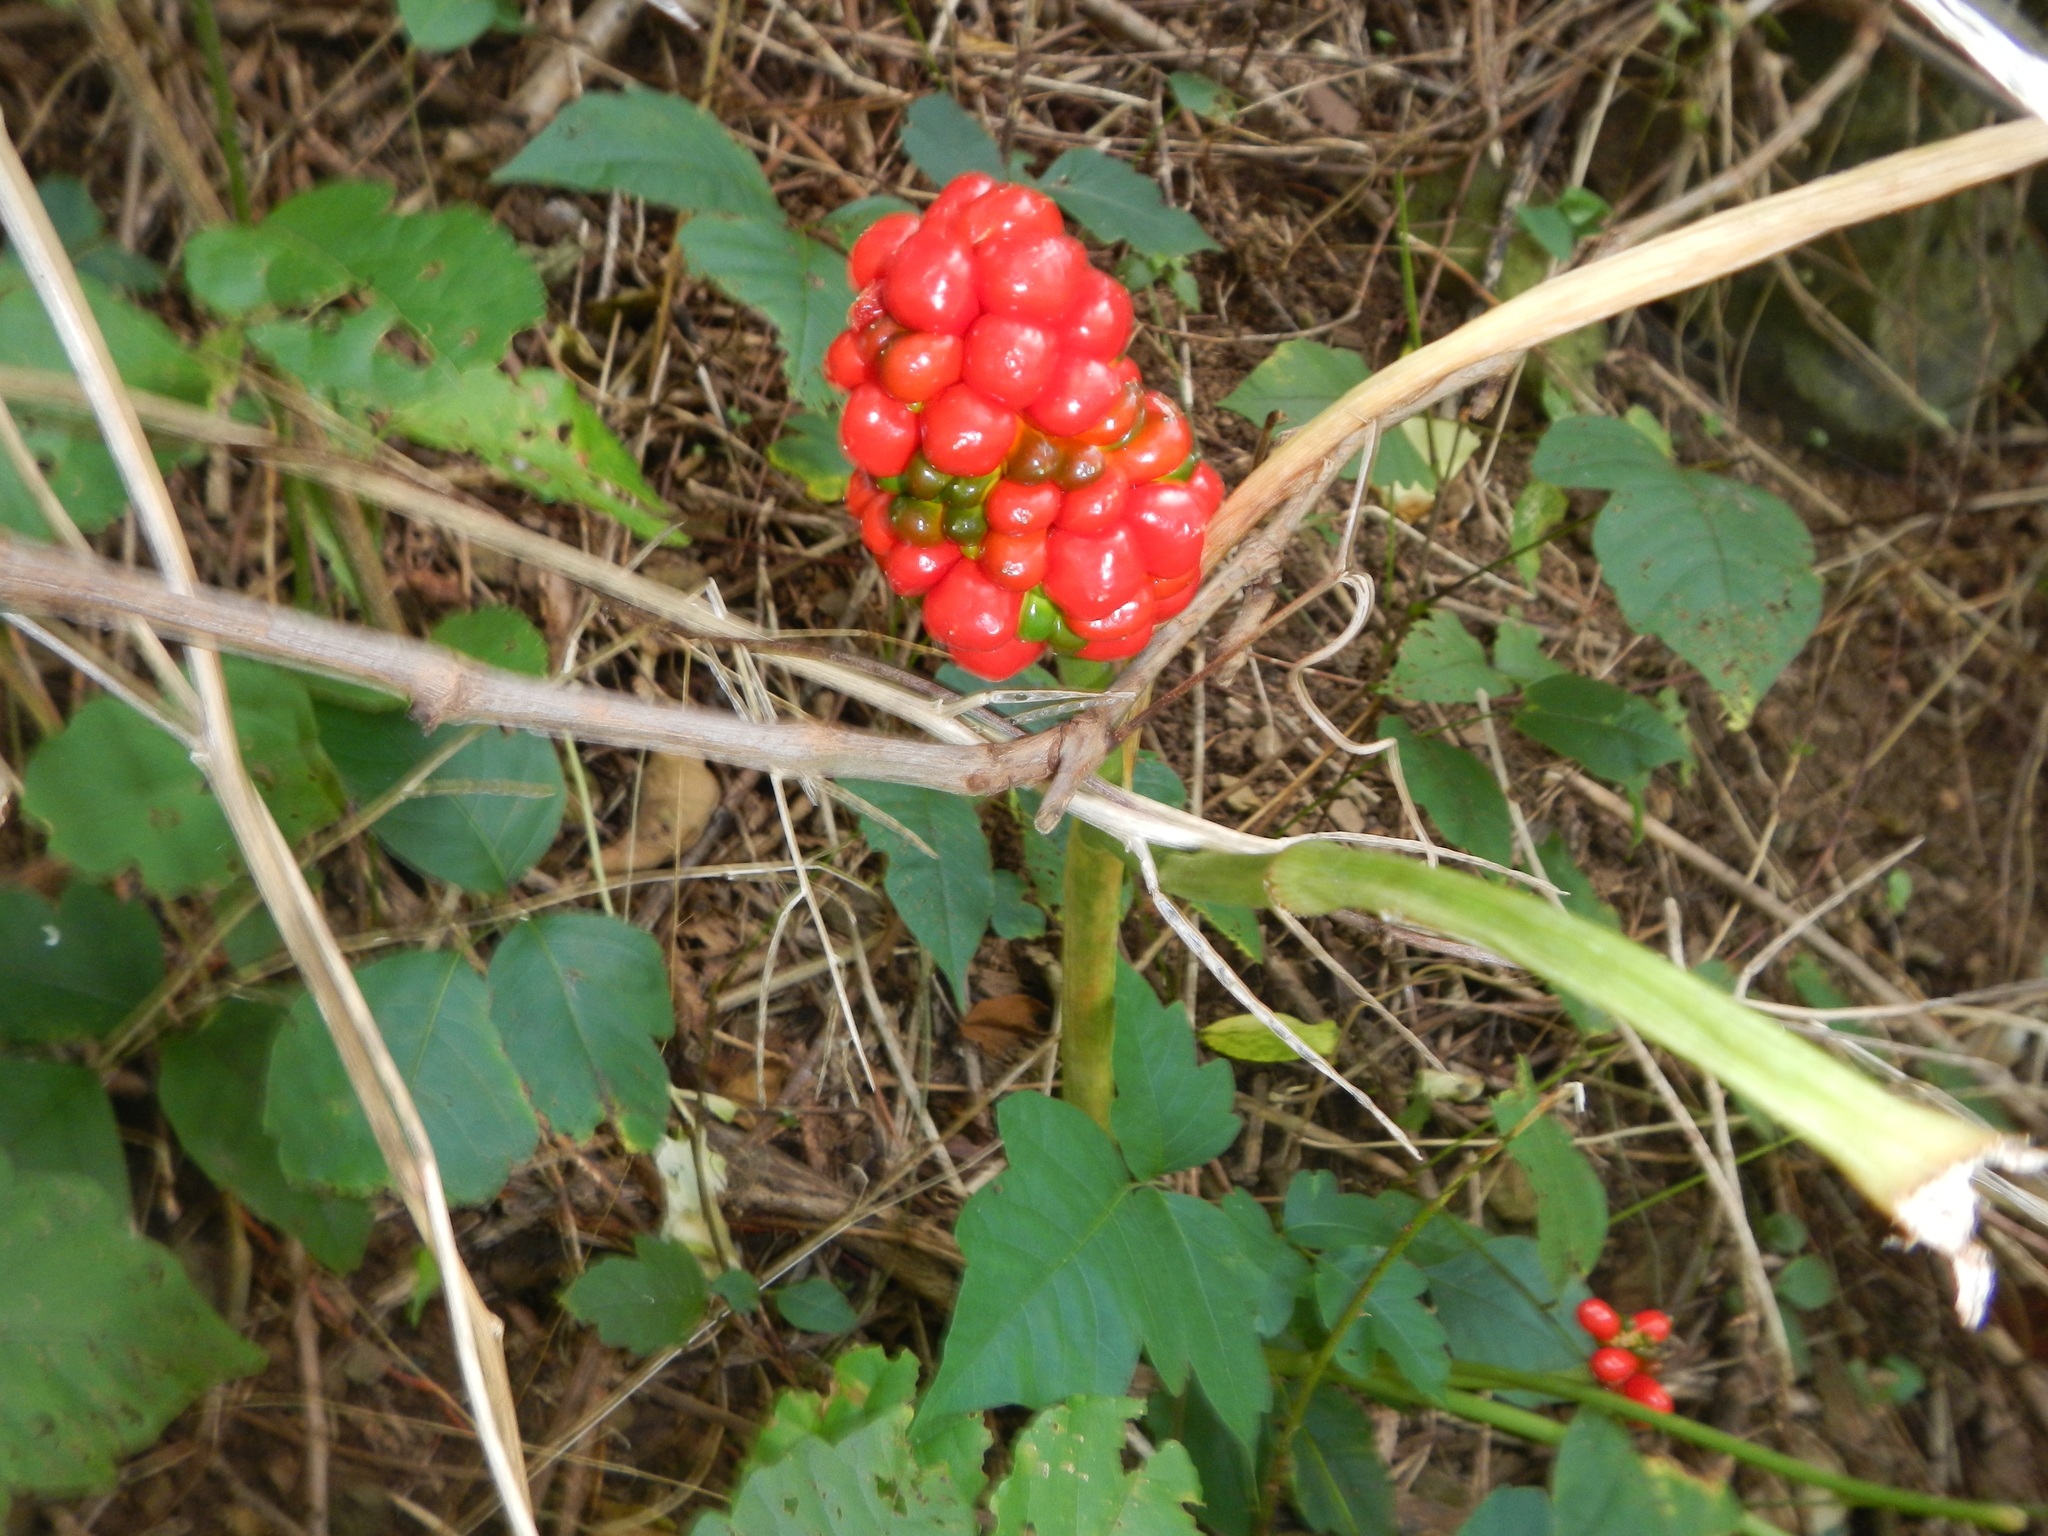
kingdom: Plantae
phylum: Tracheophyta
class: Liliopsida
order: Alismatales
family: Araceae
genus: Arisaema
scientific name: Arisaema triphyllum
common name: Jack-in-the-pulpit
